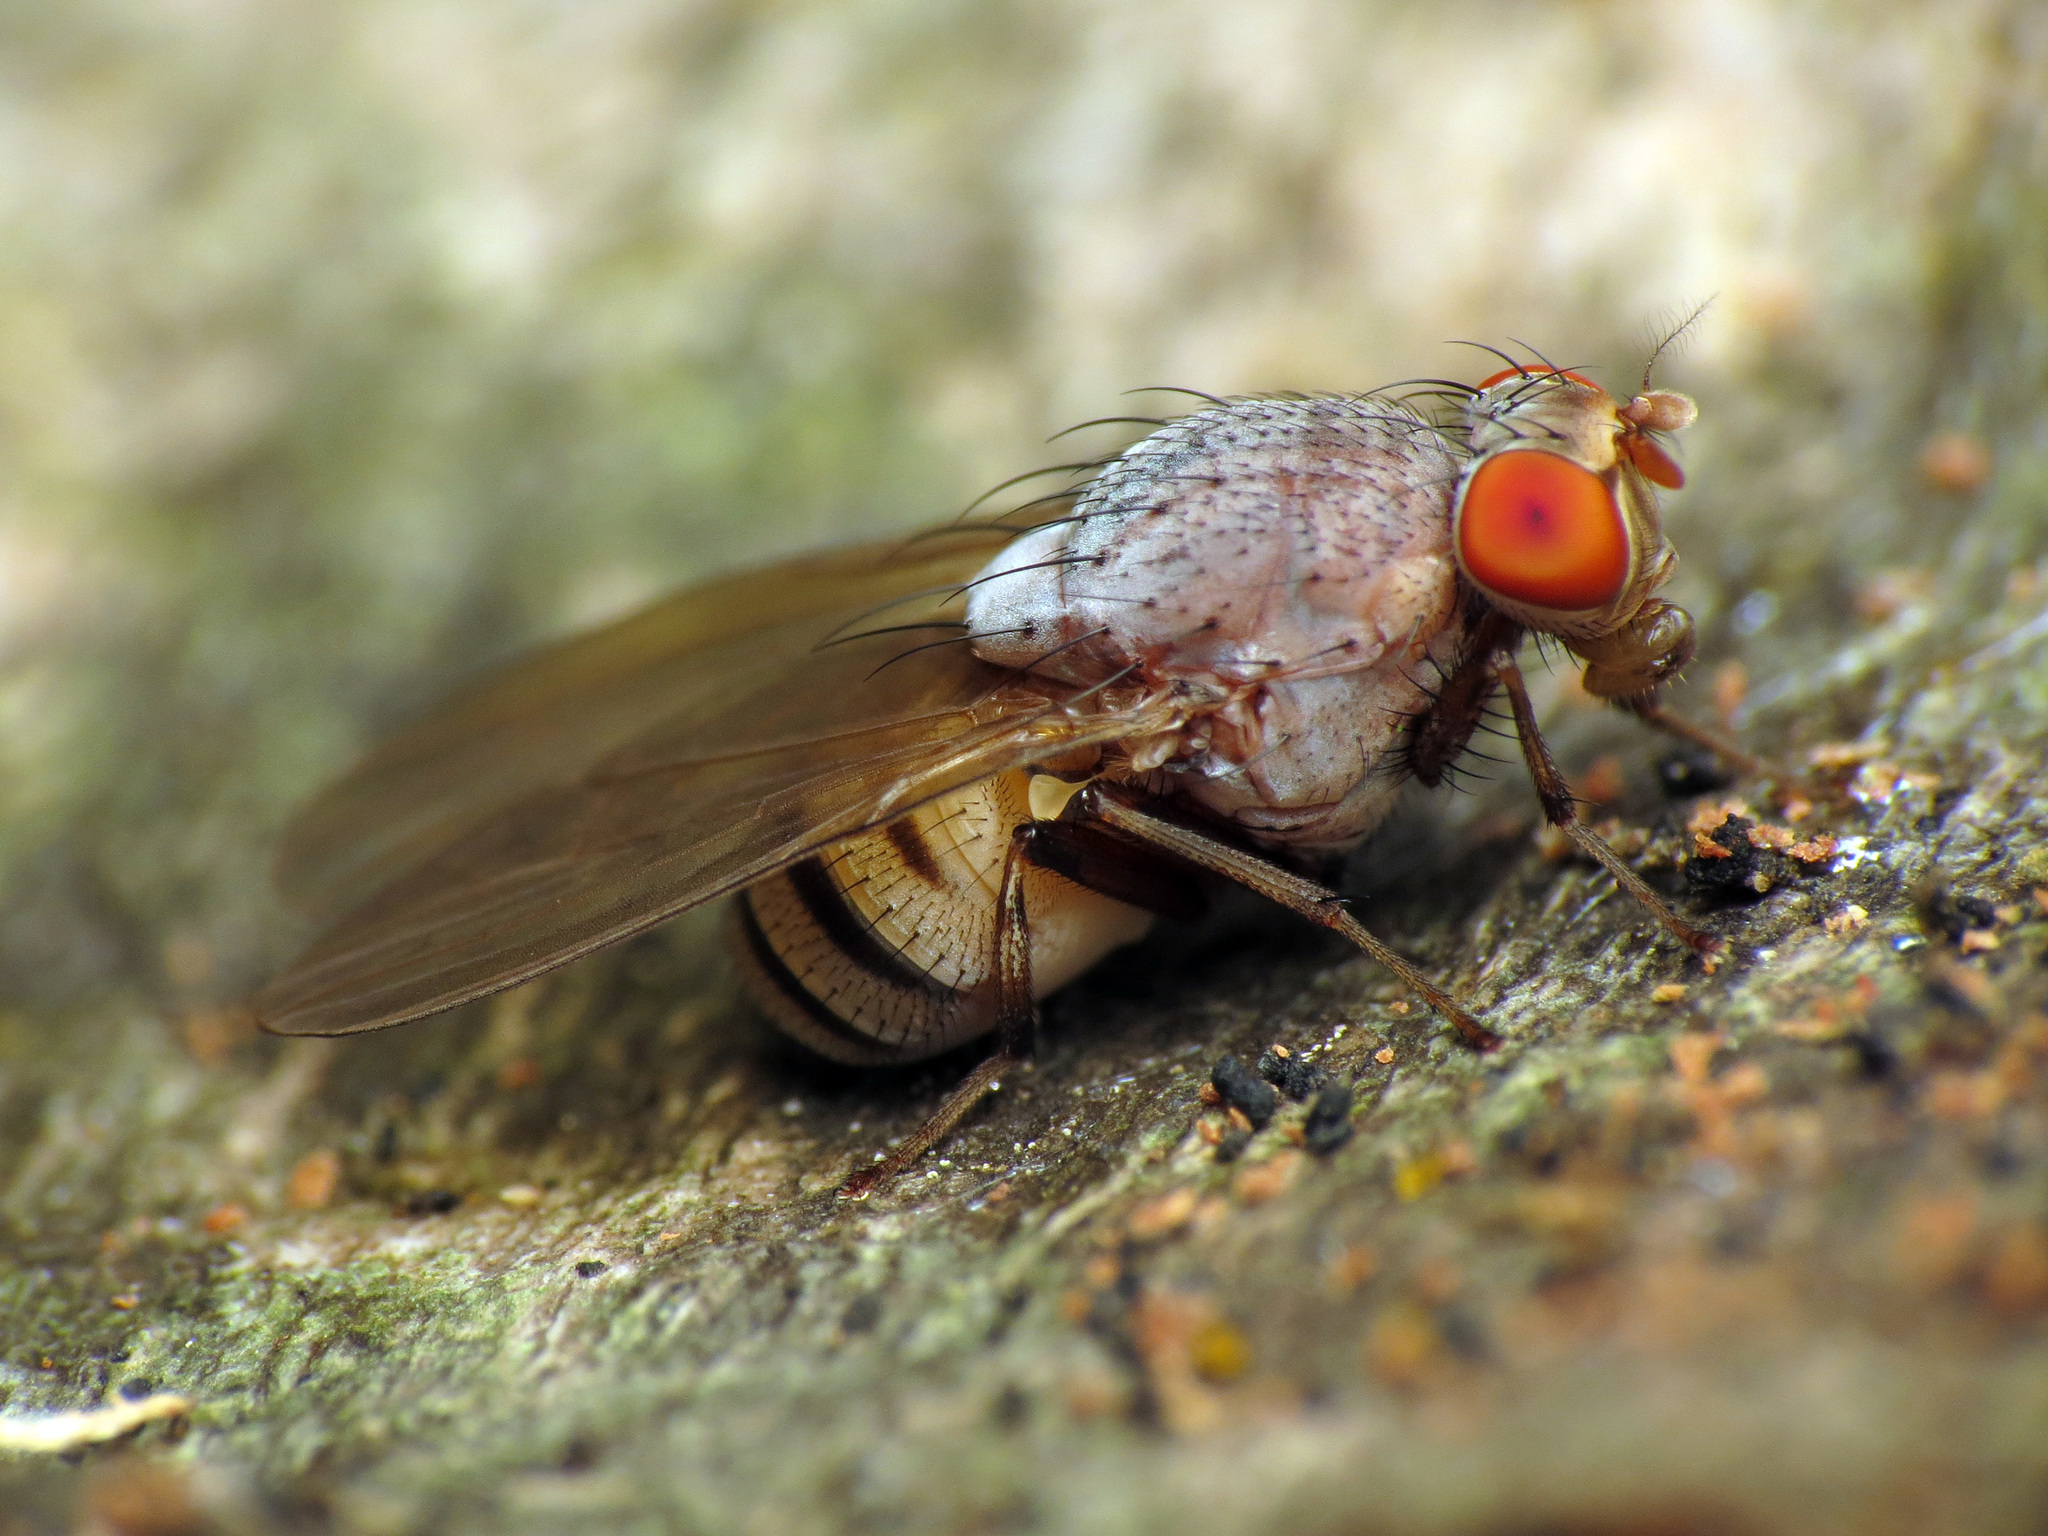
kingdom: Animalia
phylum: Arthropoda
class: Insecta
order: Diptera
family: Lauxaniidae
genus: Minettia
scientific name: Minettia magna
